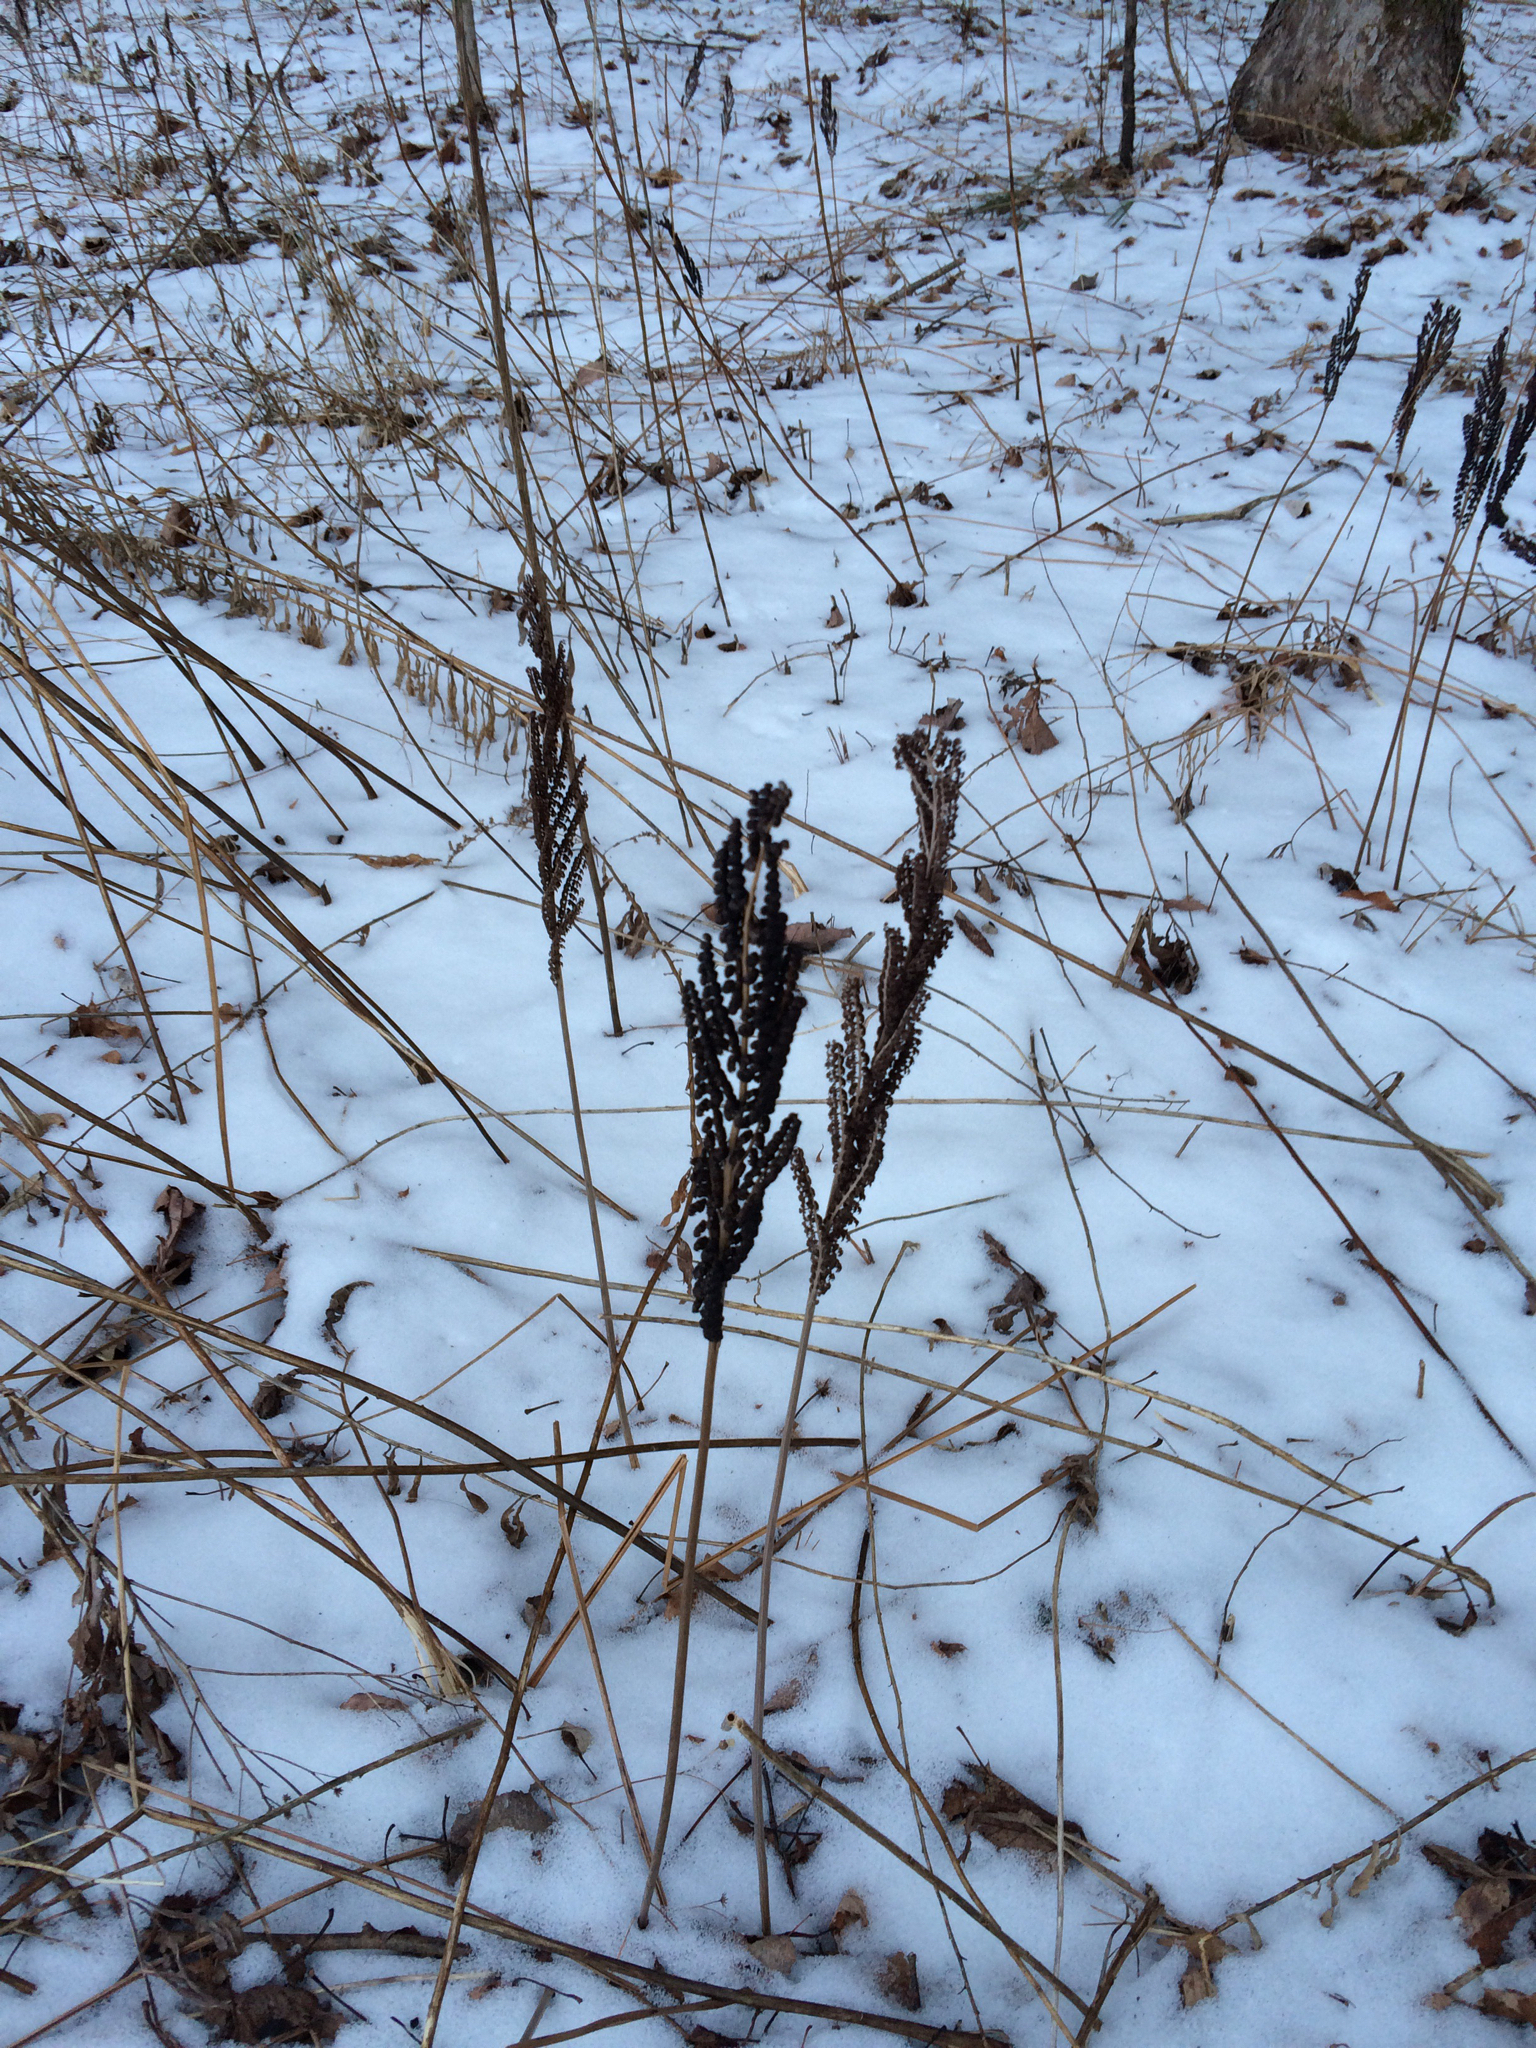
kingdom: Plantae
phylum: Tracheophyta
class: Polypodiopsida
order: Polypodiales
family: Onocleaceae
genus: Onoclea
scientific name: Onoclea sensibilis
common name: Sensitive fern
